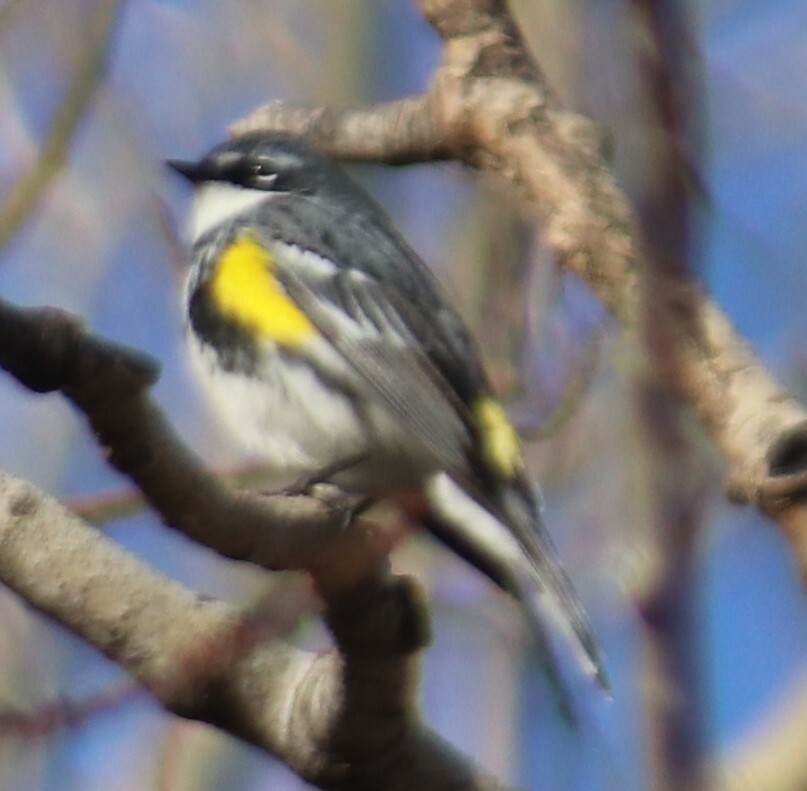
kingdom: Animalia
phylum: Chordata
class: Aves
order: Passeriformes
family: Parulidae
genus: Setophaga
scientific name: Setophaga coronata
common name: Myrtle warbler
